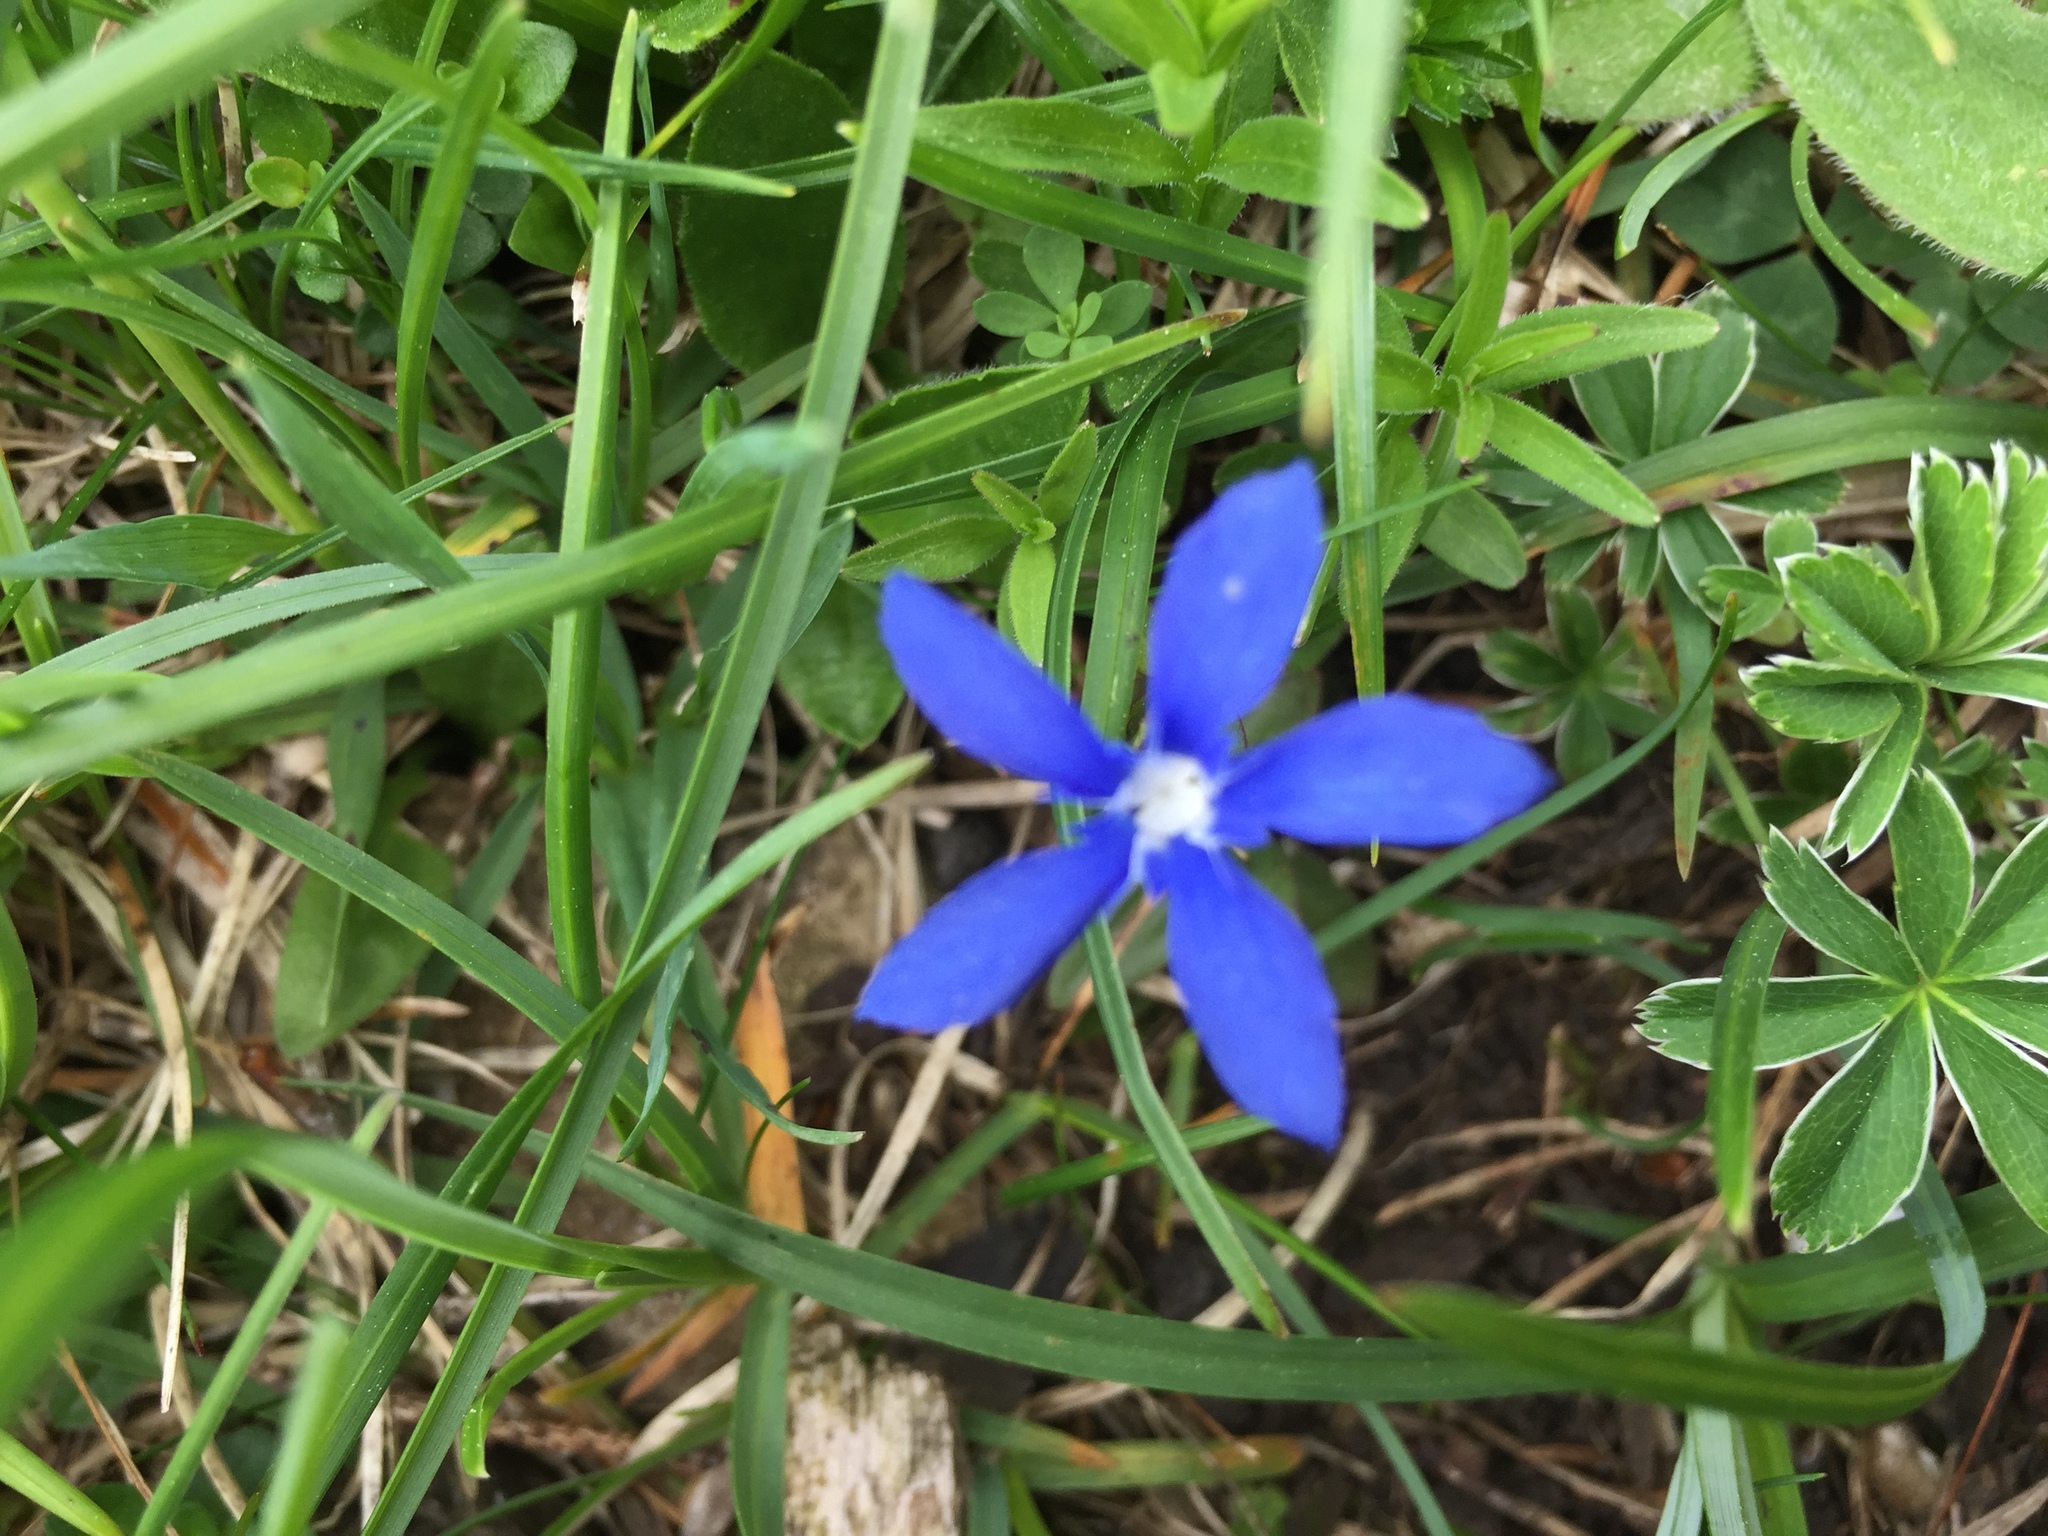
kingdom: Plantae
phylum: Tracheophyta
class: Magnoliopsida
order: Gentianales
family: Gentianaceae
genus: Gentiana
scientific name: Gentiana verna
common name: Spring gentian
